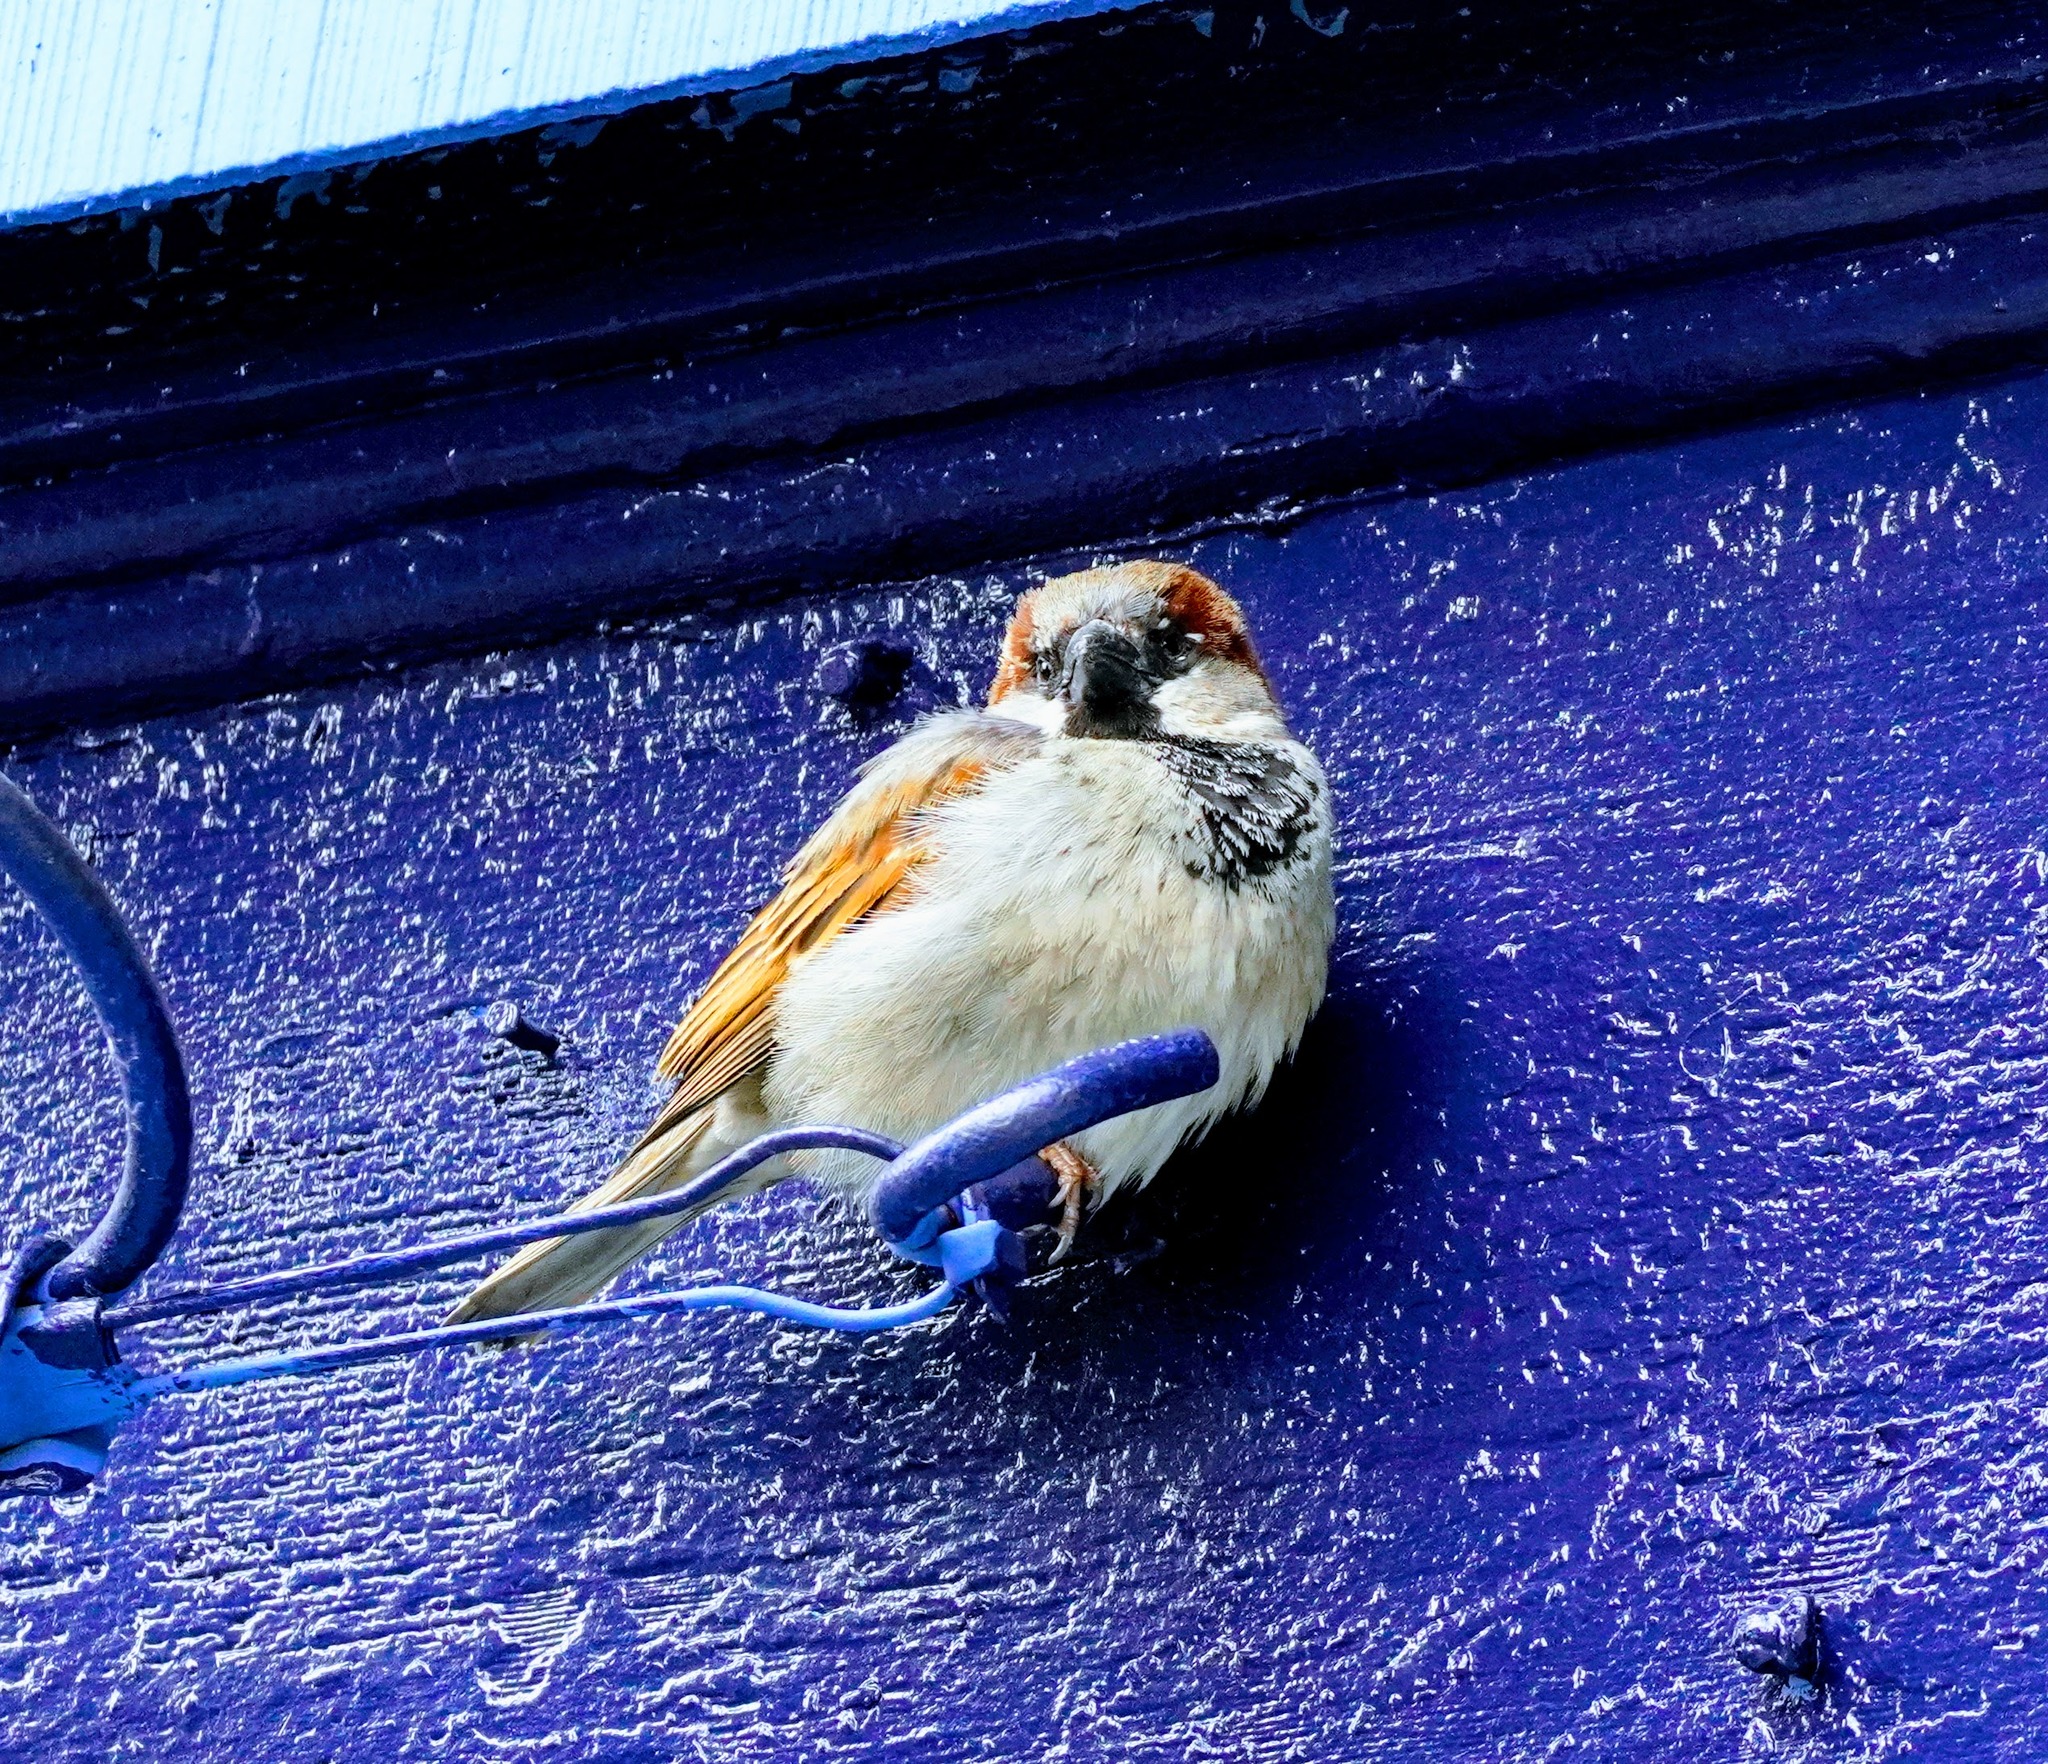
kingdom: Animalia
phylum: Chordata
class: Aves
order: Passeriformes
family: Passeridae
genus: Passer
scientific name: Passer domesticus
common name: House sparrow
